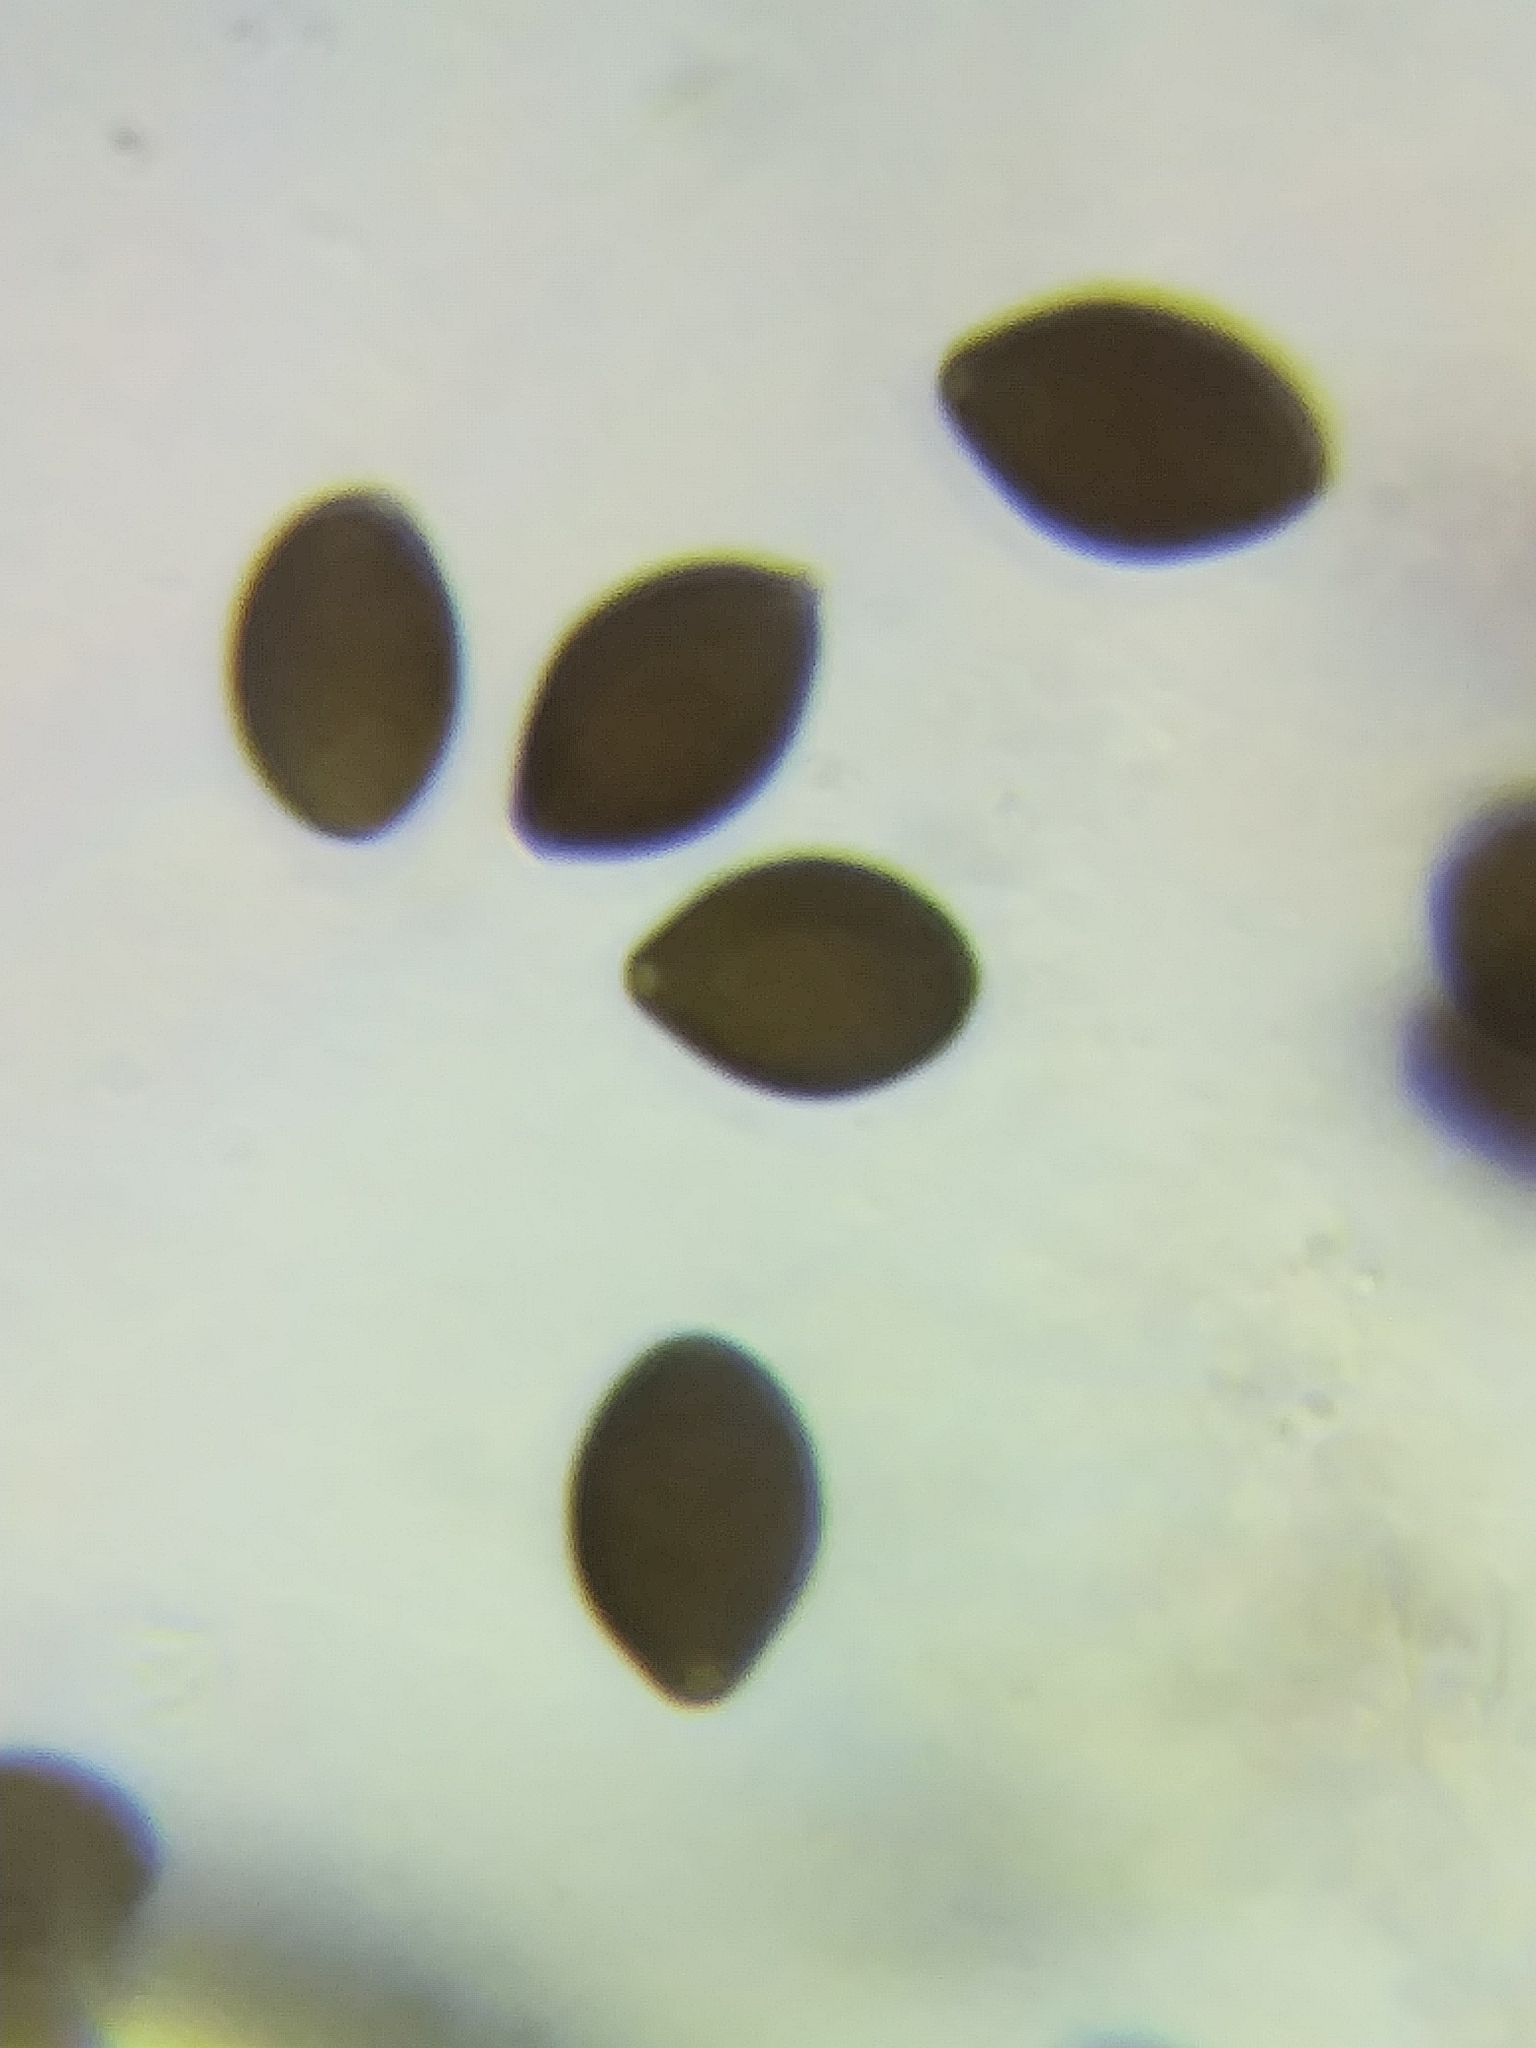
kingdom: Fungi
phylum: Basidiomycota
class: Agaricomycetes
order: Agaricales
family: Bolbitiaceae
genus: Panaeolus
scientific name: Panaeolus subbalteatus
